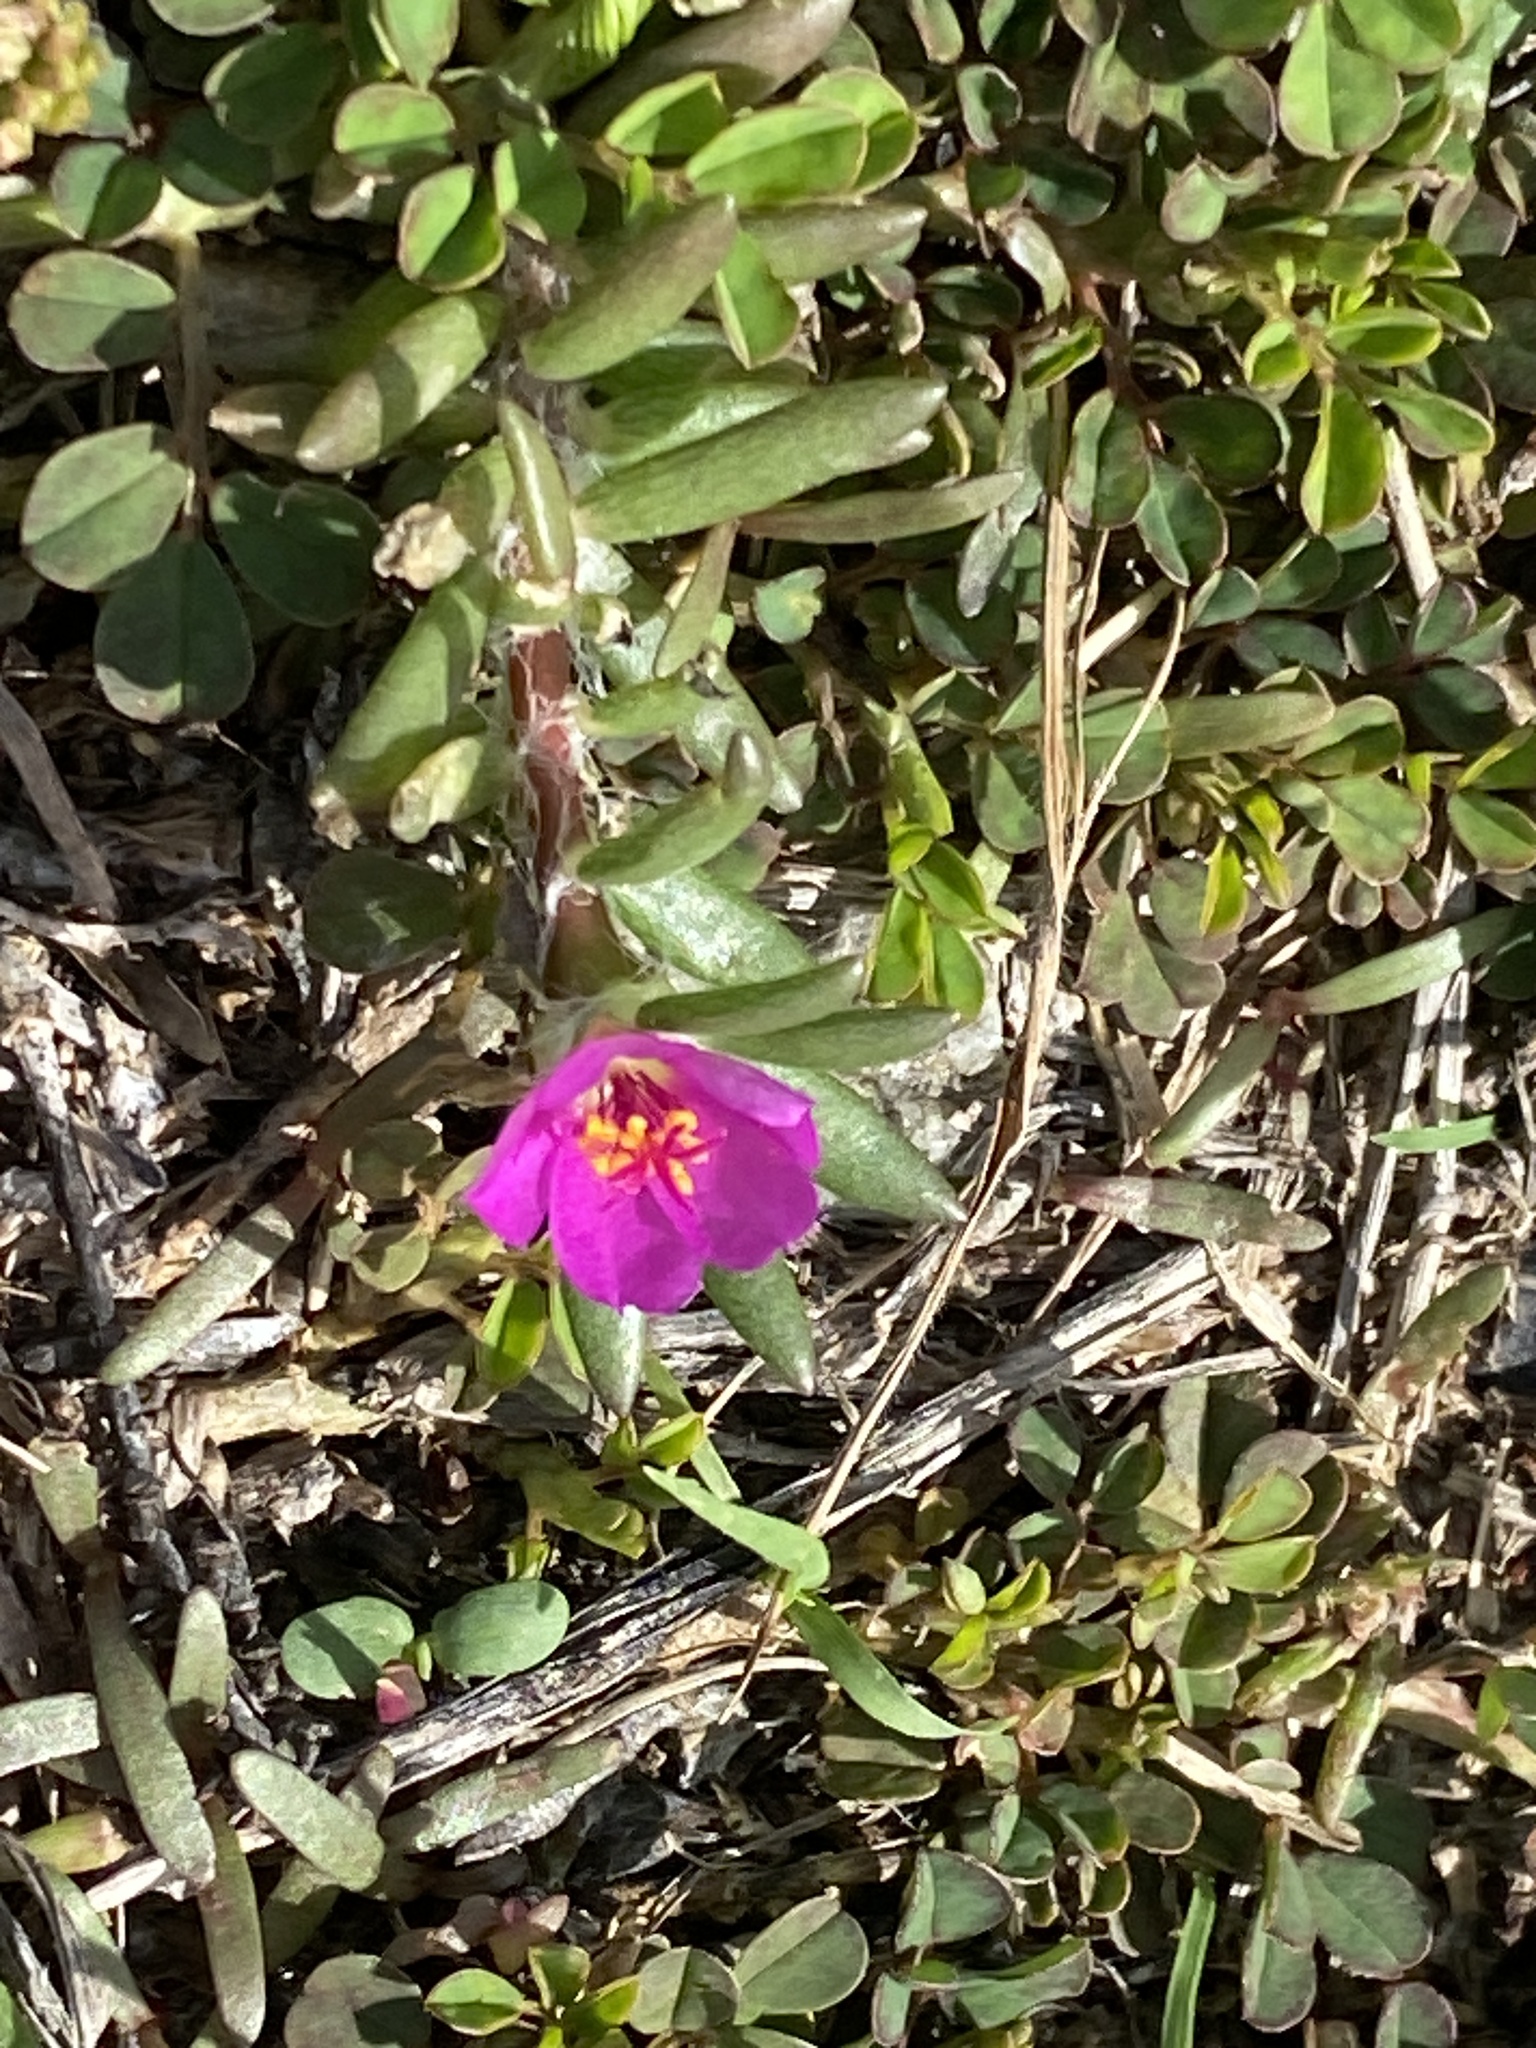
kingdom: Plantae
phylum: Tracheophyta
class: Magnoliopsida
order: Caryophyllales
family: Portulacaceae
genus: Portulaca
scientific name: Portulaca pilosa
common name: Kiss me quick
